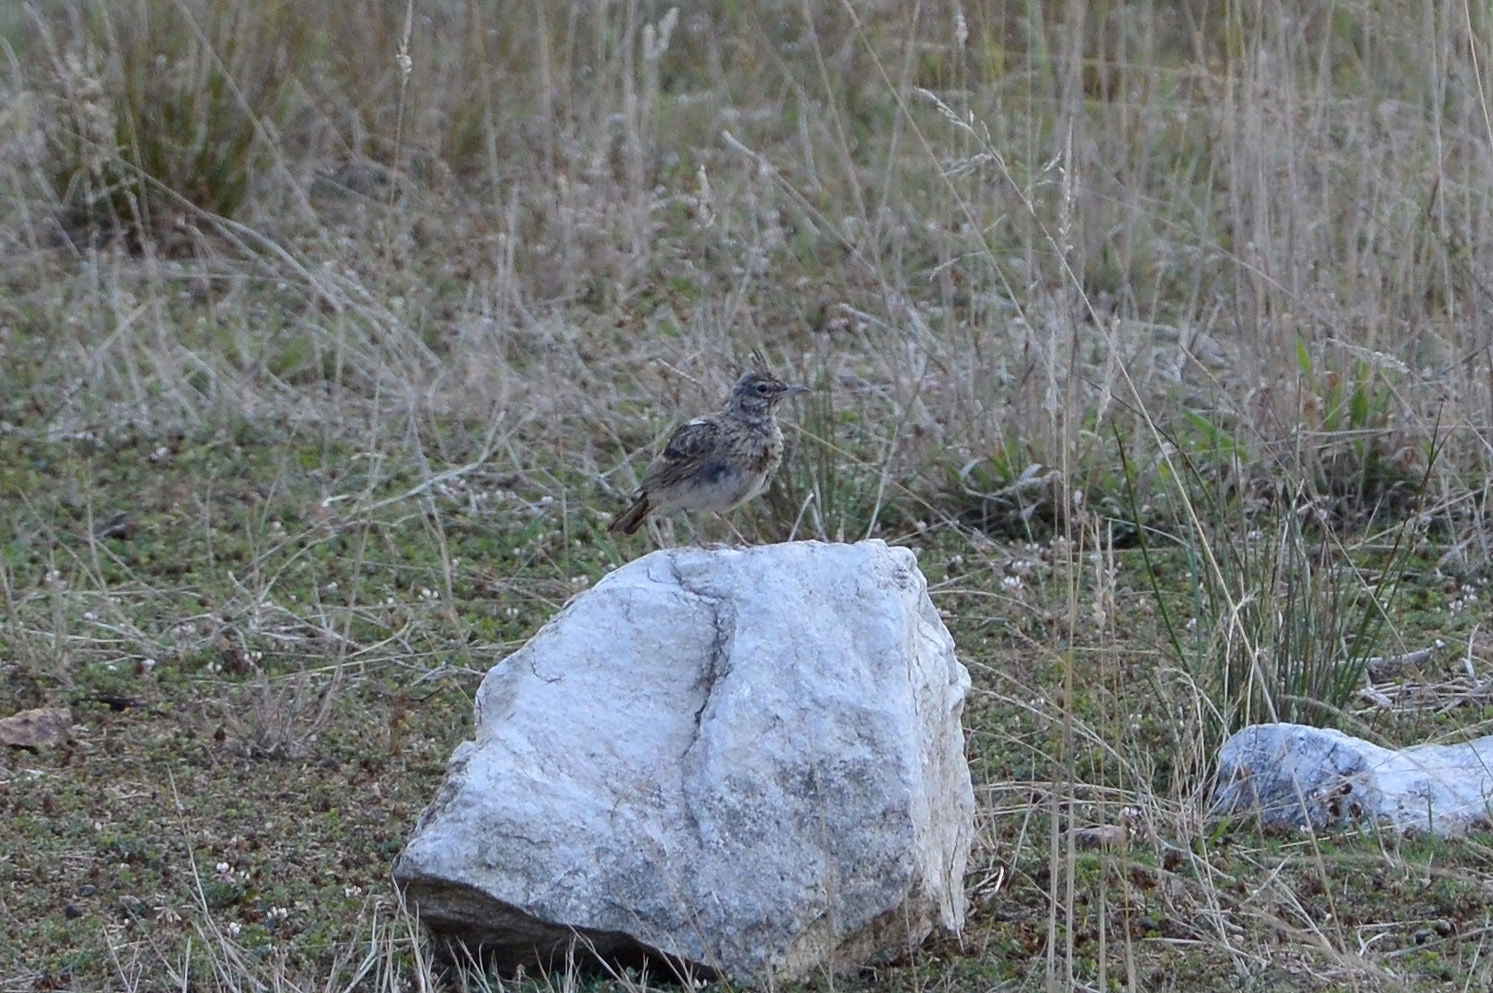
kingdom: Animalia
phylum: Chordata
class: Aves
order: Passeriformes
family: Alaudidae
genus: Galerida
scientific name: Galerida cristata
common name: Crested lark
